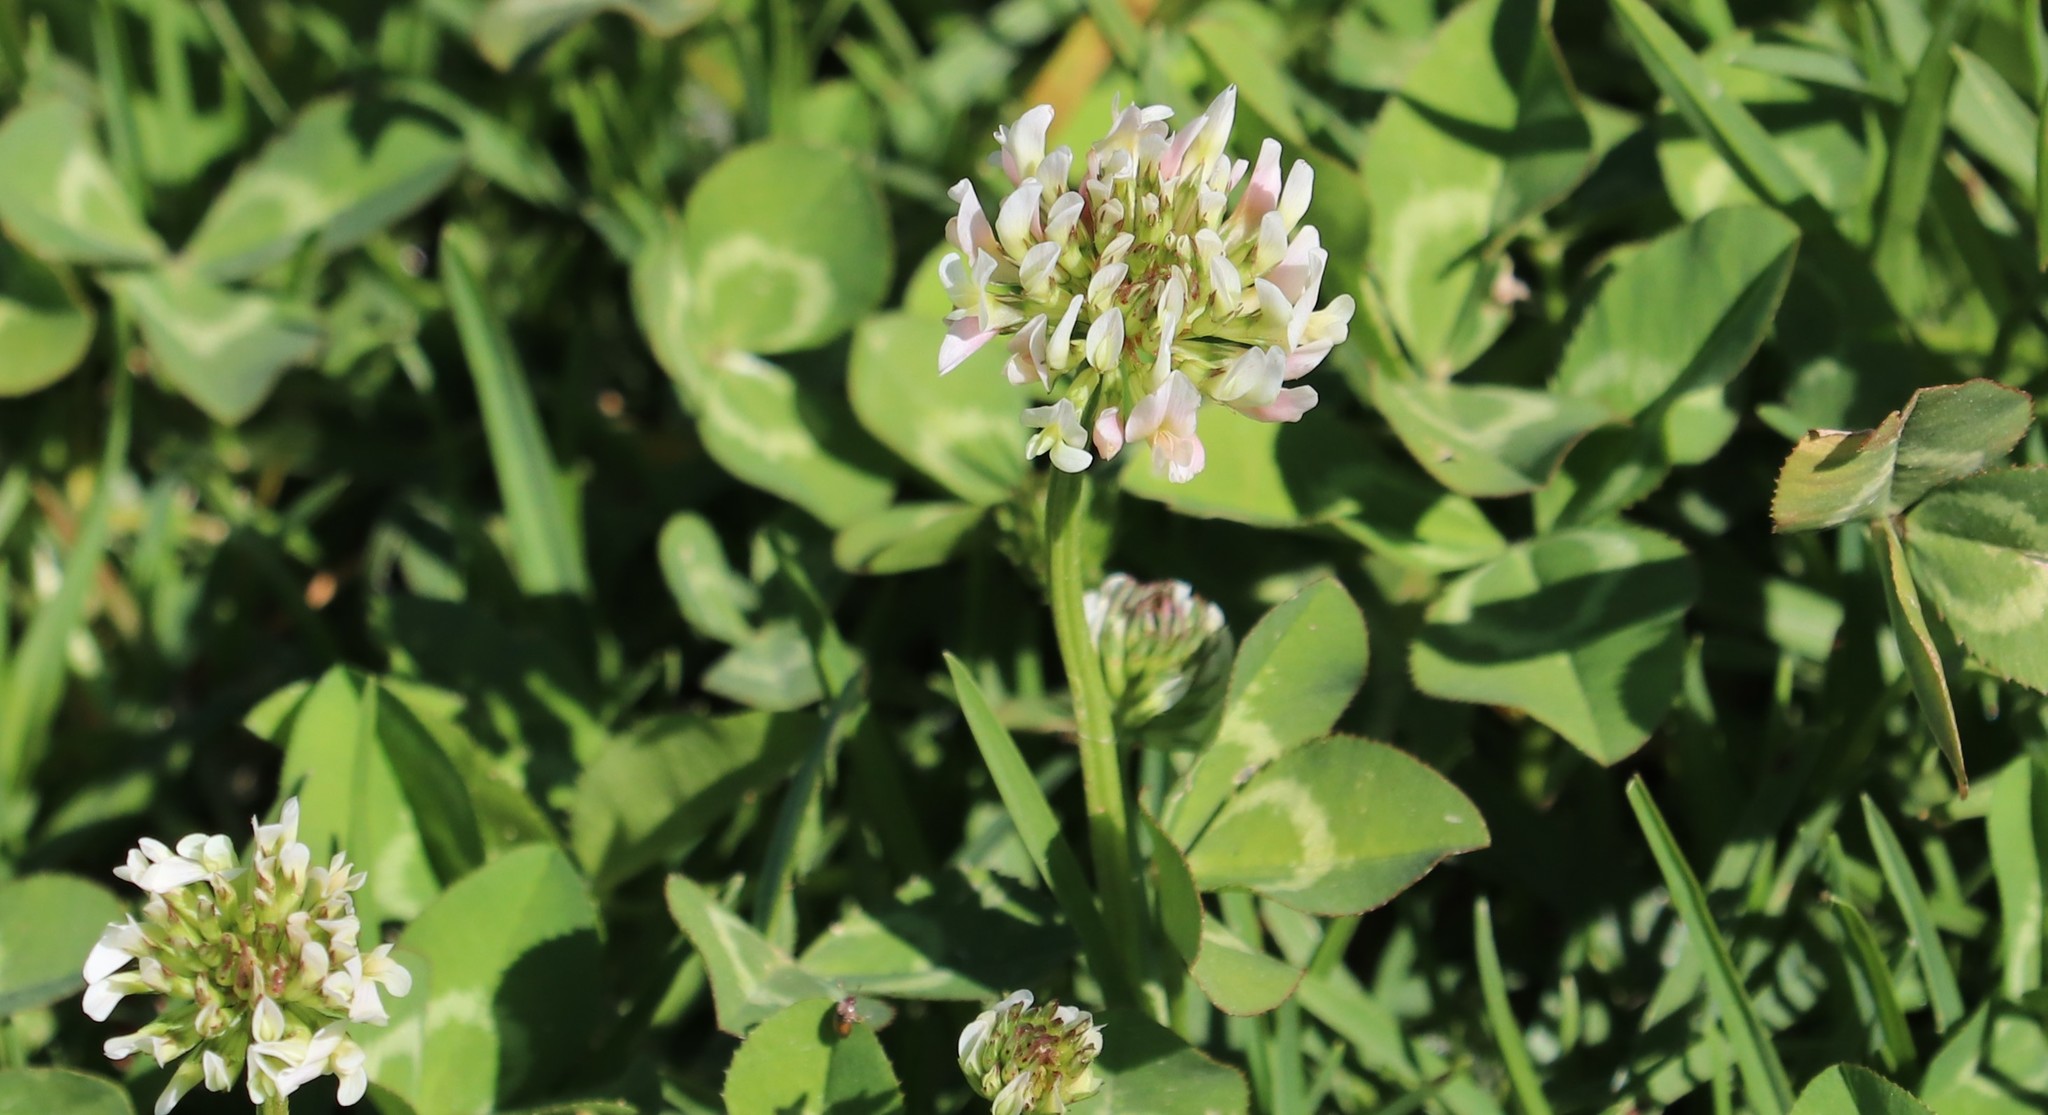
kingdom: Plantae
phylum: Tracheophyta
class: Magnoliopsida
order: Fabales
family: Fabaceae
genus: Trifolium
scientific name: Trifolium repens
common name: White clover
